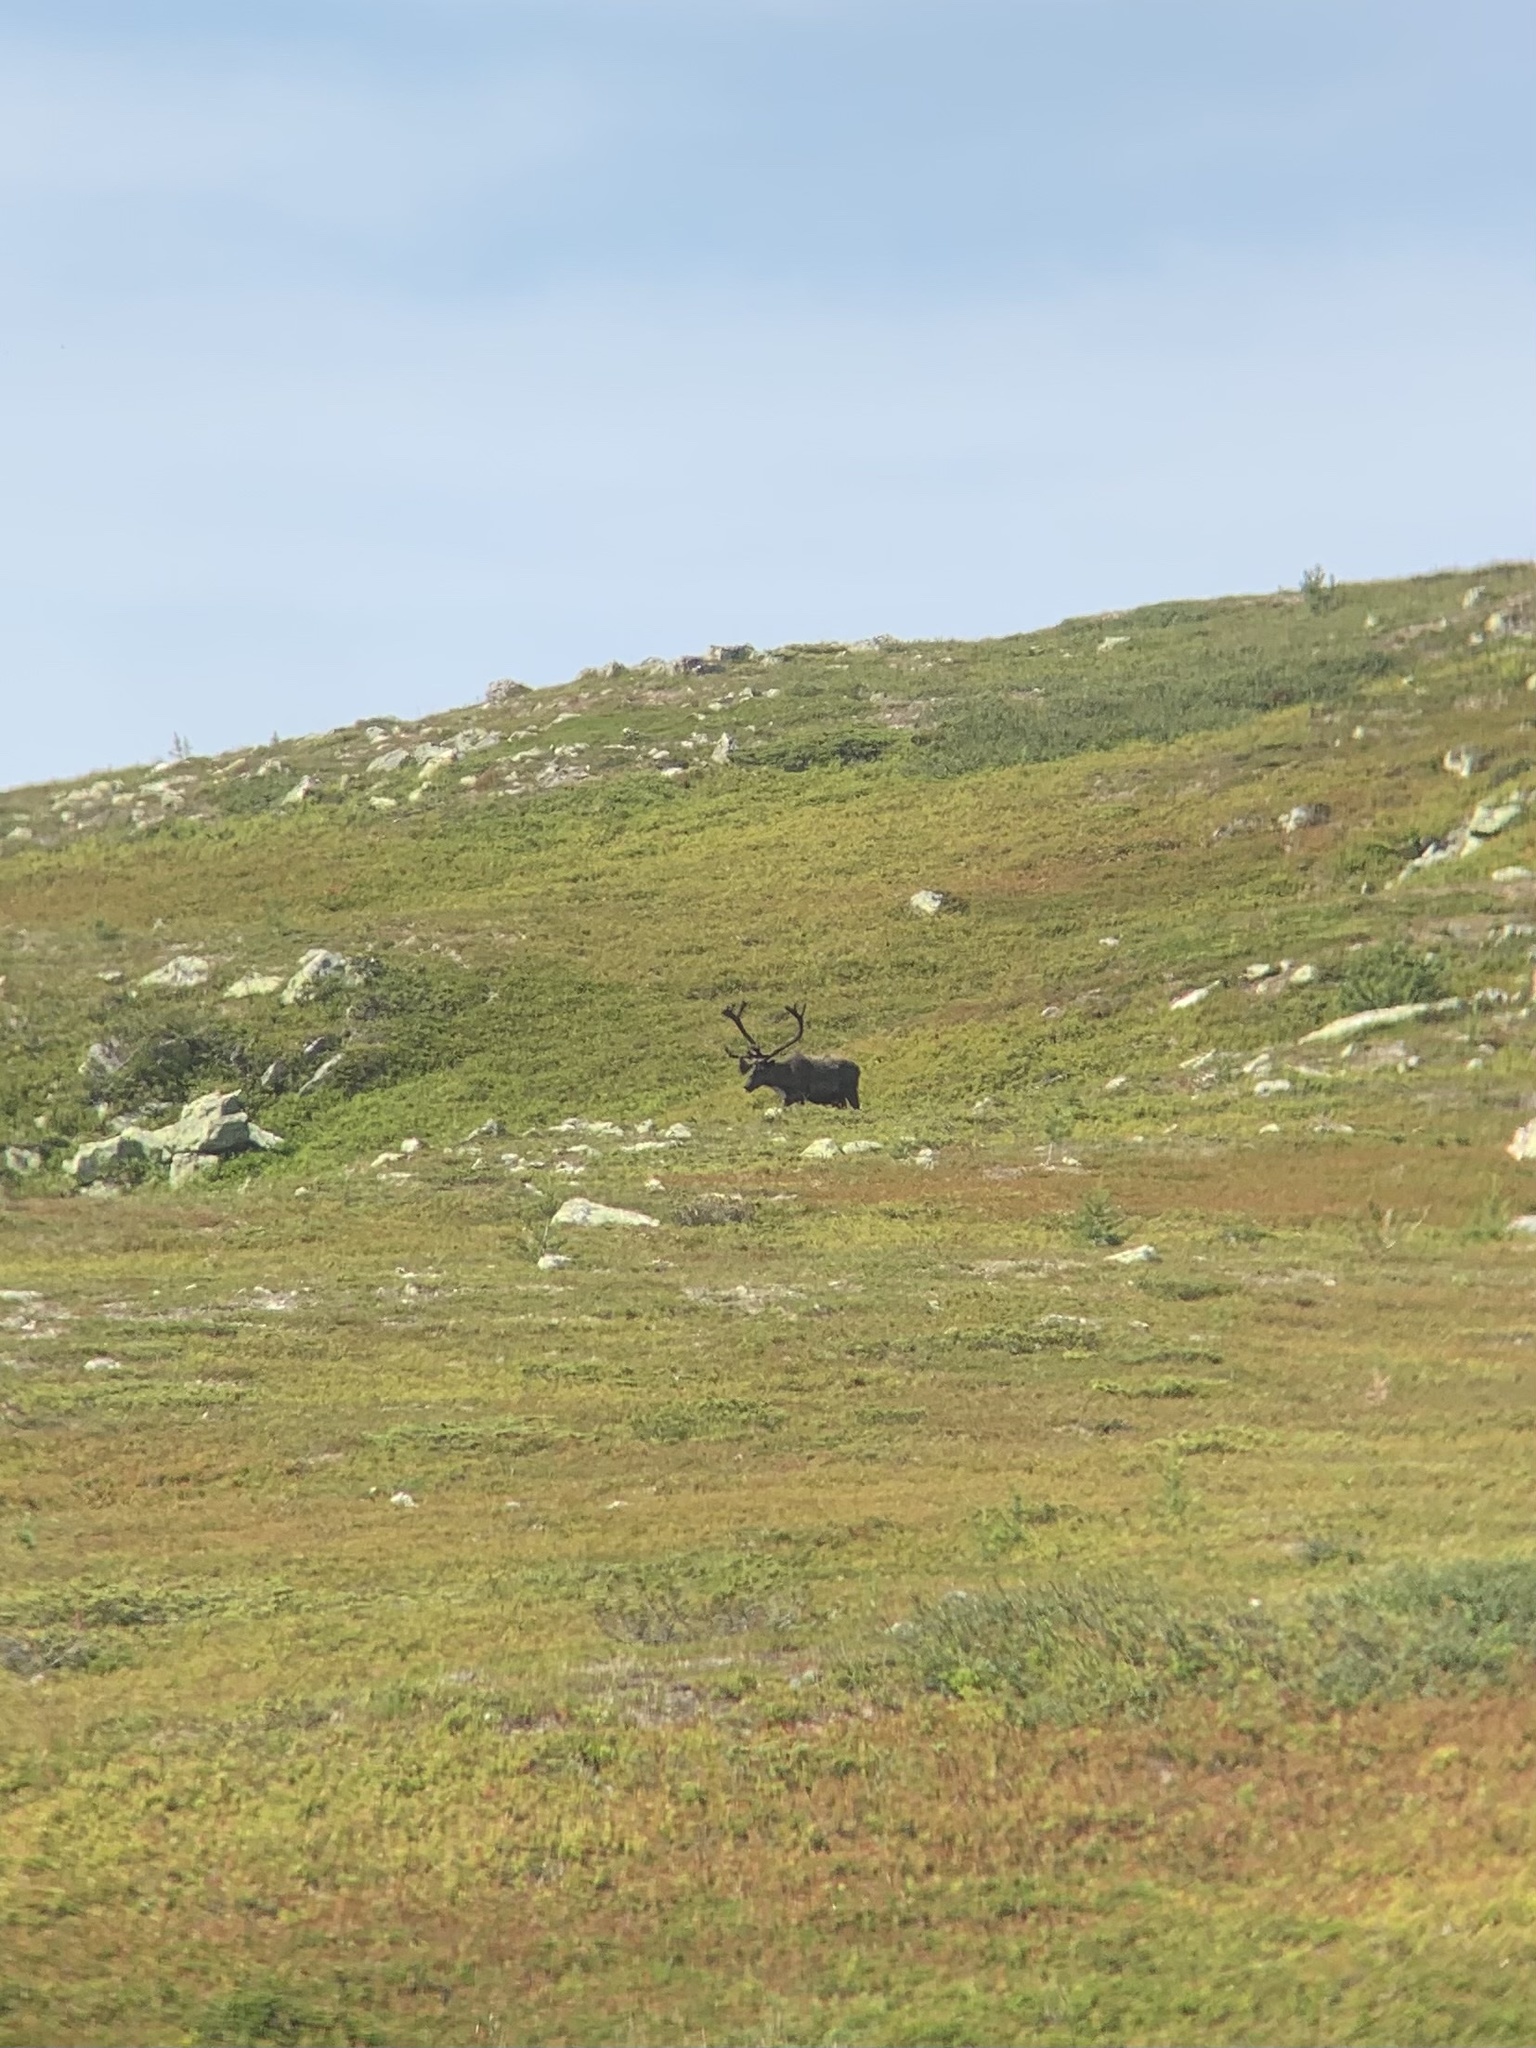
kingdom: Animalia
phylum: Chordata
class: Mammalia
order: Artiodactyla
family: Cervidae
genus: Rangifer
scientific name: Rangifer tarandus
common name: Reindeer
